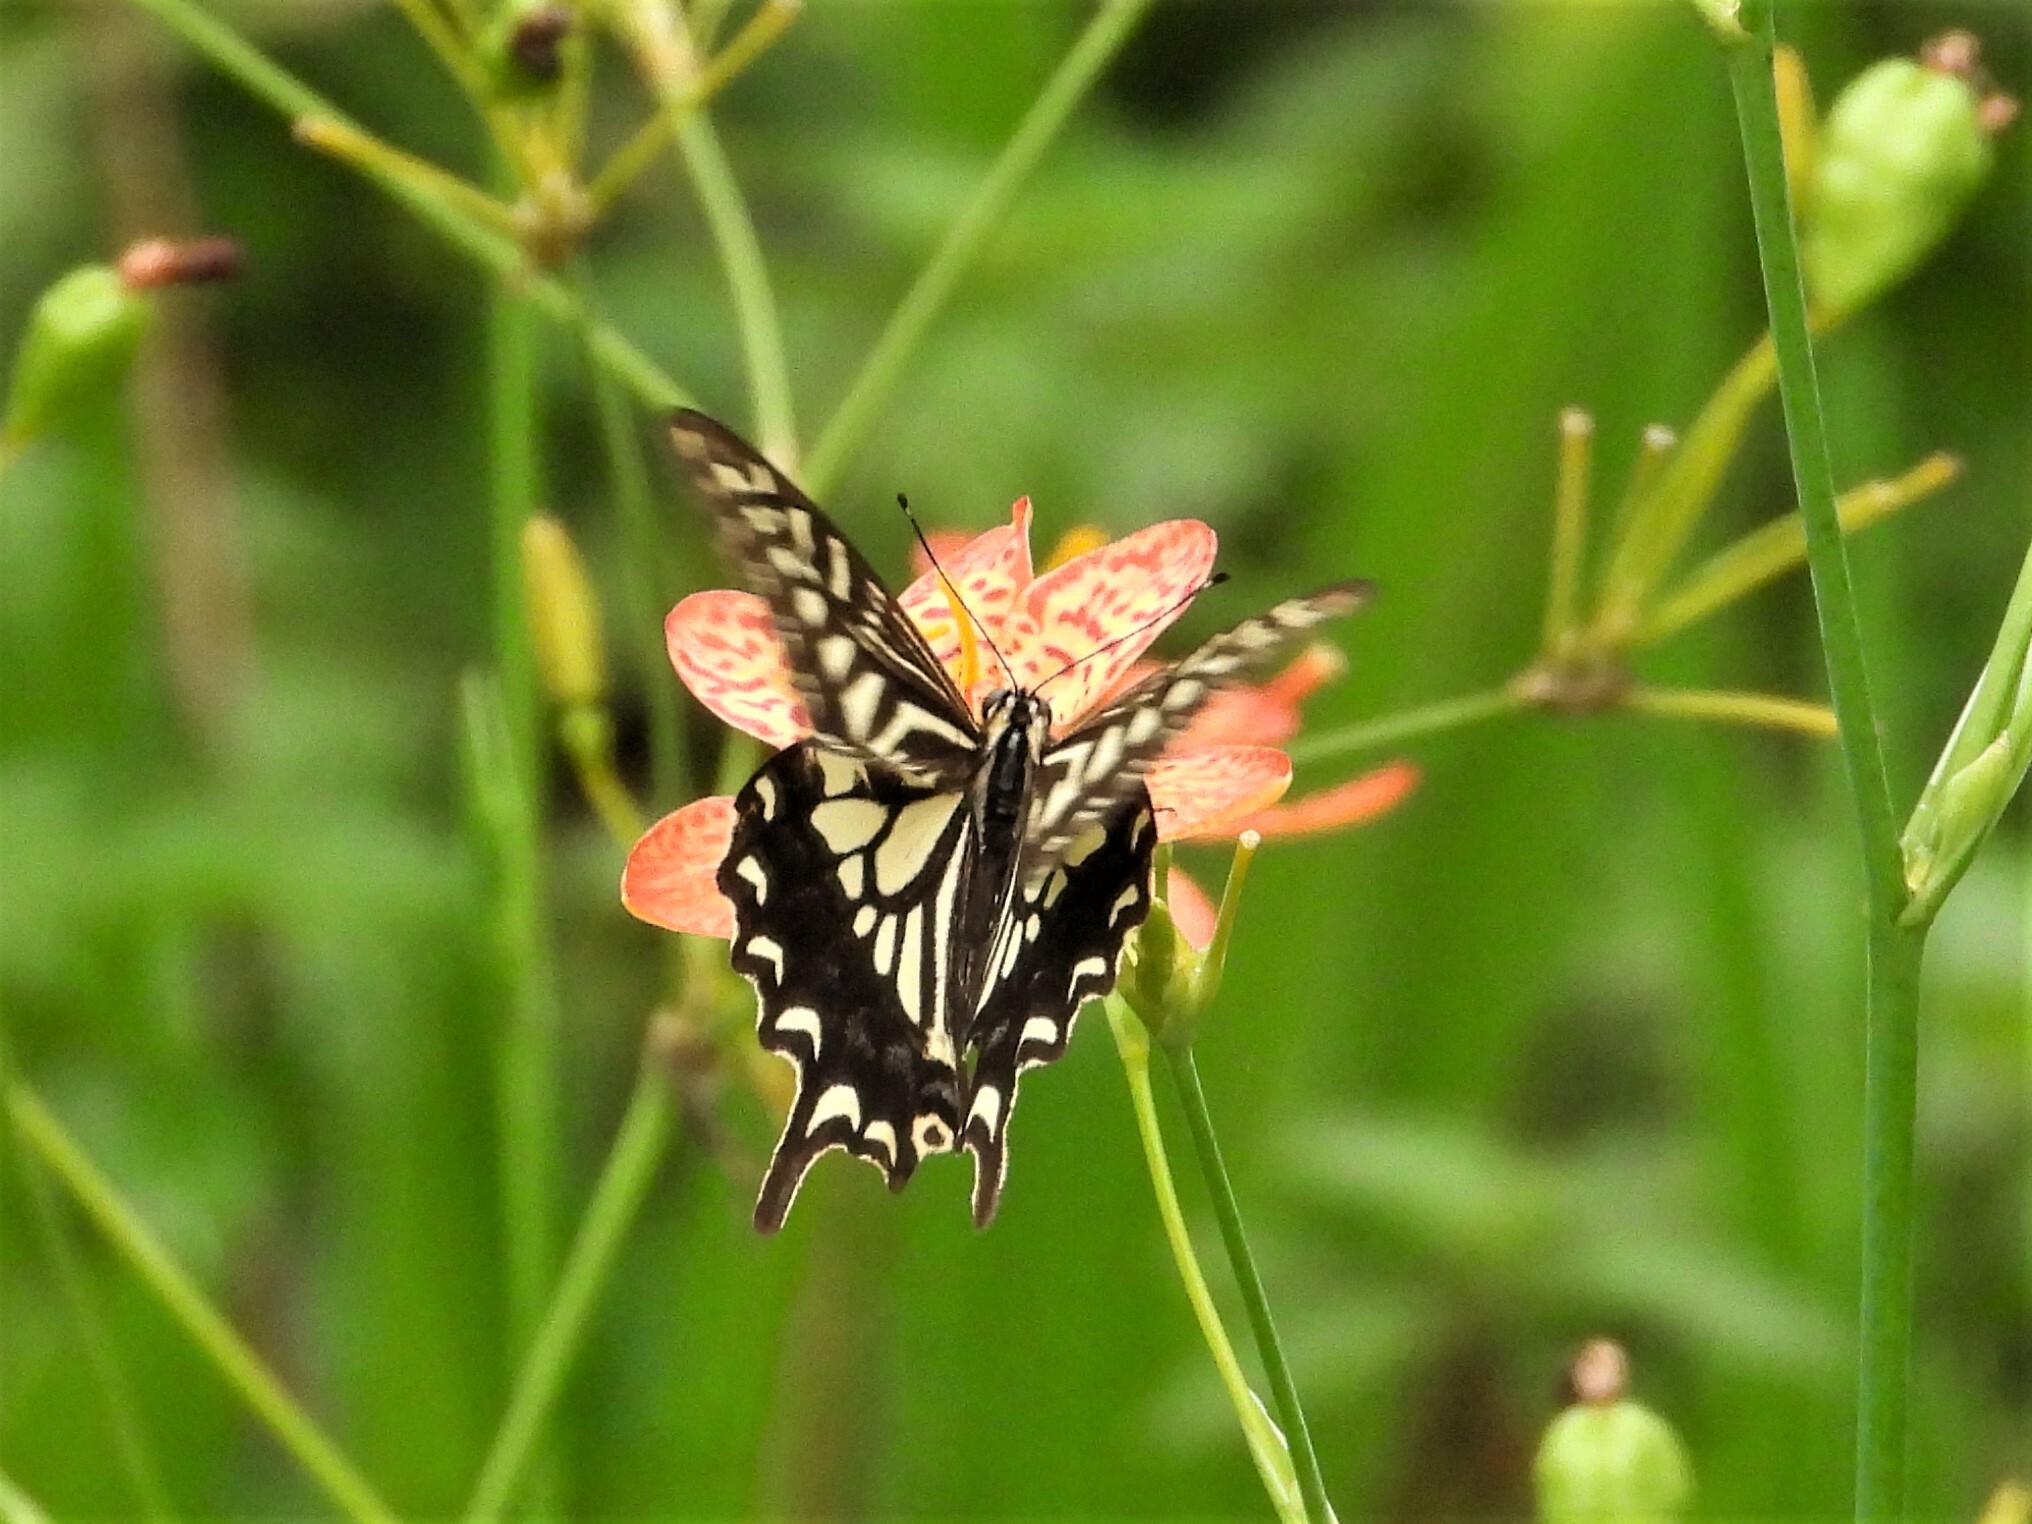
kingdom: Animalia
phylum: Arthropoda
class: Insecta
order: Lepidoptera
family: Papilionidae
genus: Papilio
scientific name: Papilio xuthus
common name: Asian swallowtail
